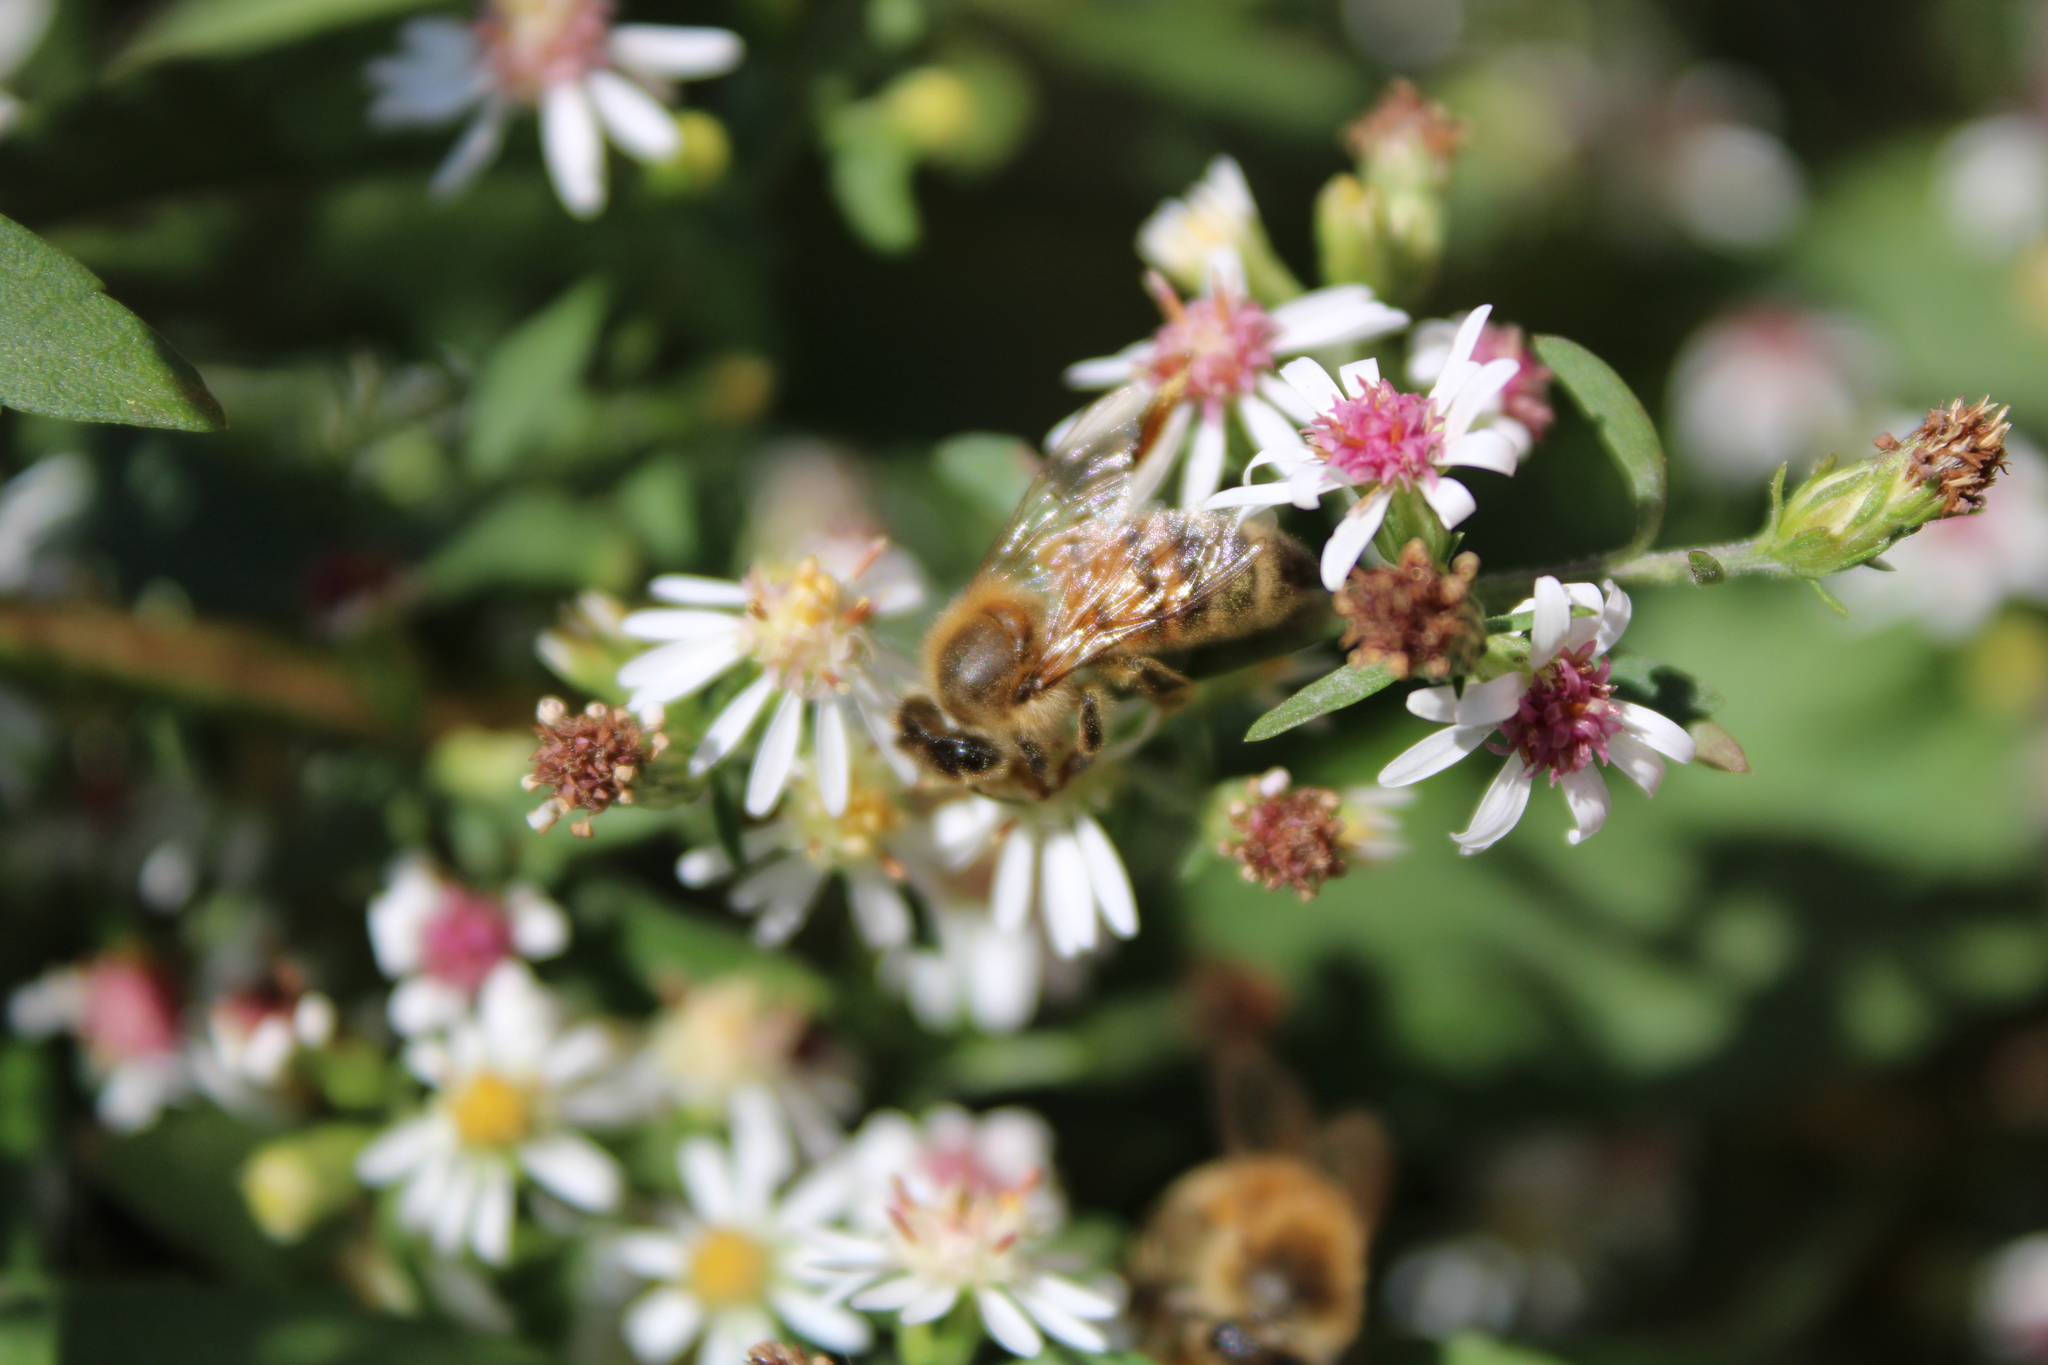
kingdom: Animalia
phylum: Arthropoda
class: Insecta
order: Hymenoptera
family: Apidae
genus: Apis
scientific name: Apis mellifera
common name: Honey bee
